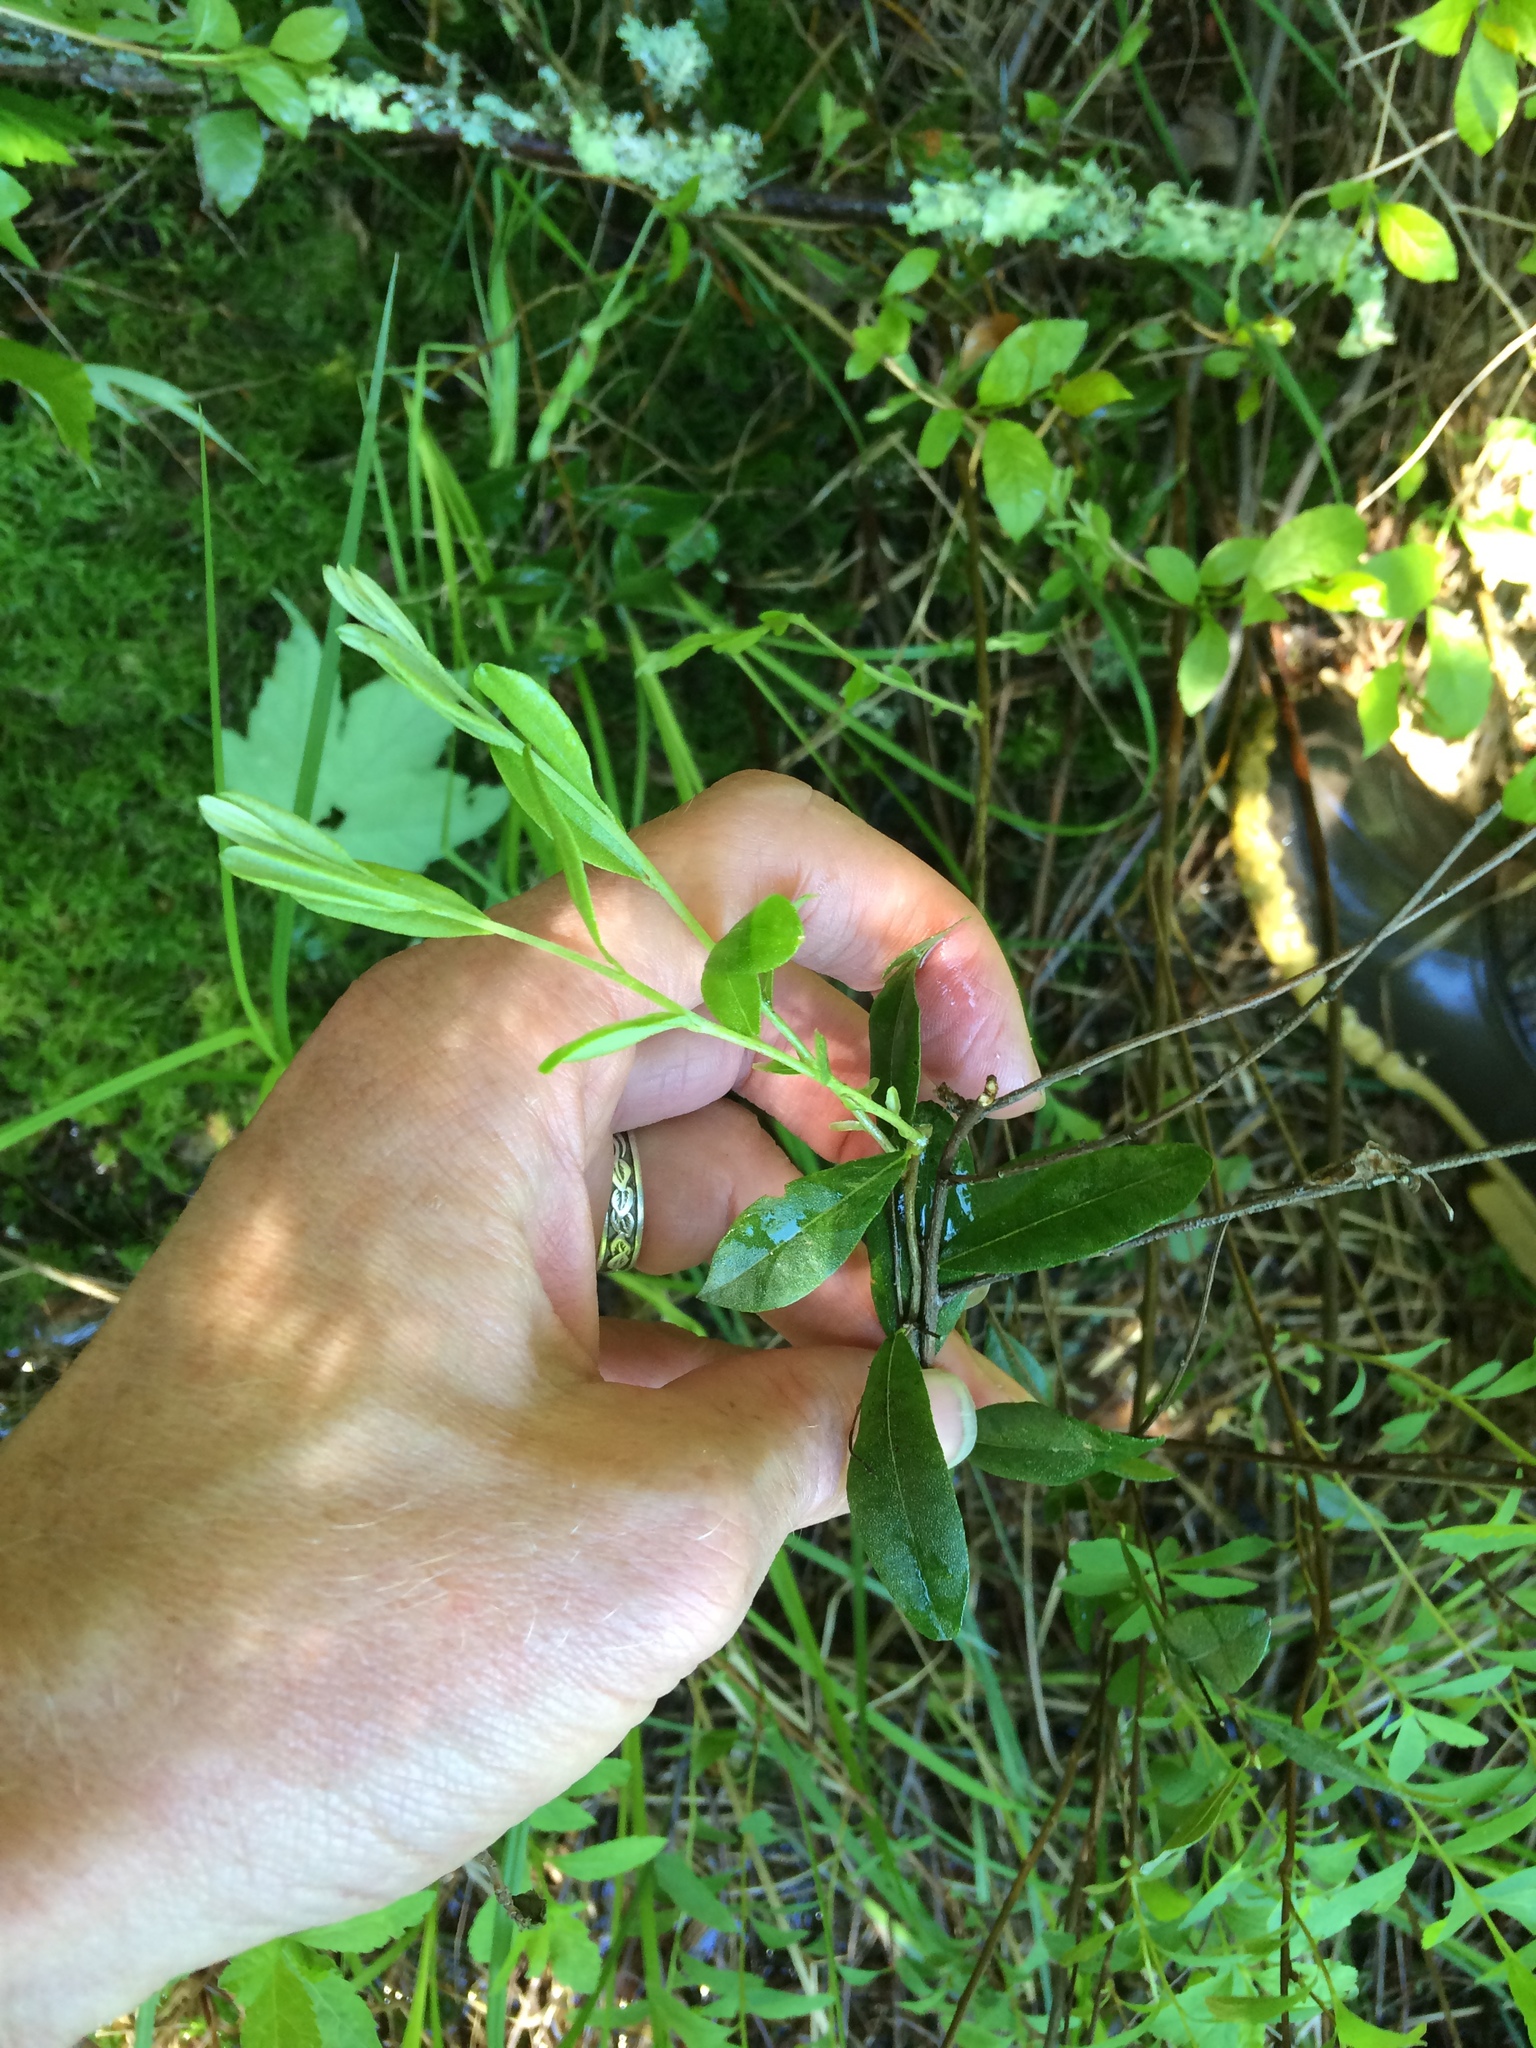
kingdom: Plantae
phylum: Tracheophyta
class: Magnoliopsida
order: Ericales
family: Ericaceae
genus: Chamaedaphne
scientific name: Chamaedaphne calyculata
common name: Leatherleaf
